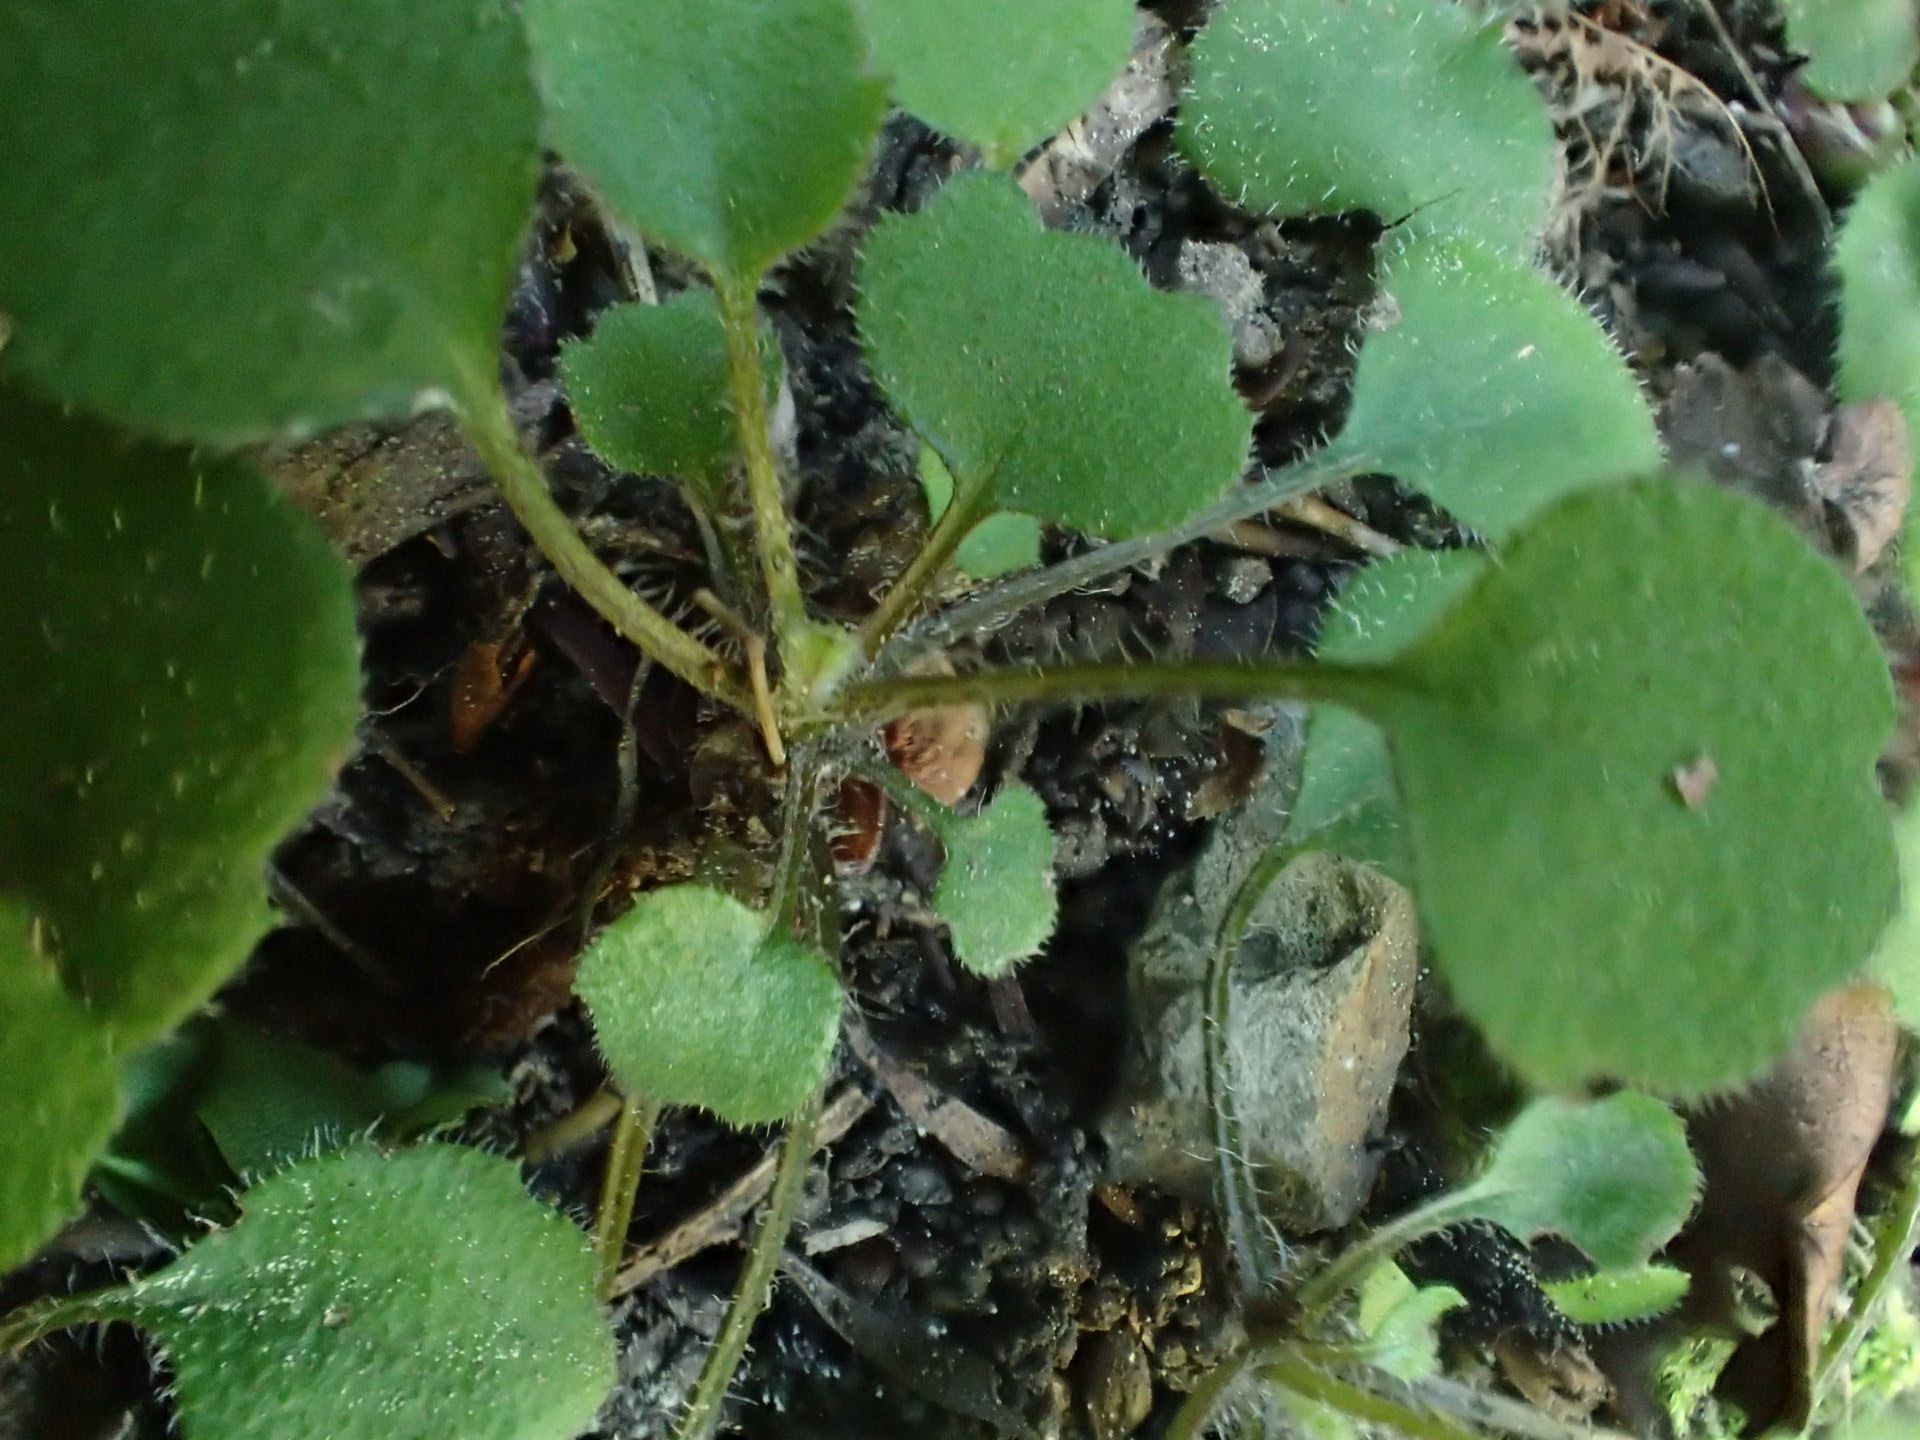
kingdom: Plantae
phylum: Tracheophyta
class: Magnoliopsida
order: Asterales
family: Asteraceae
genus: Lagenophora
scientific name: Lagenophora strangulata
